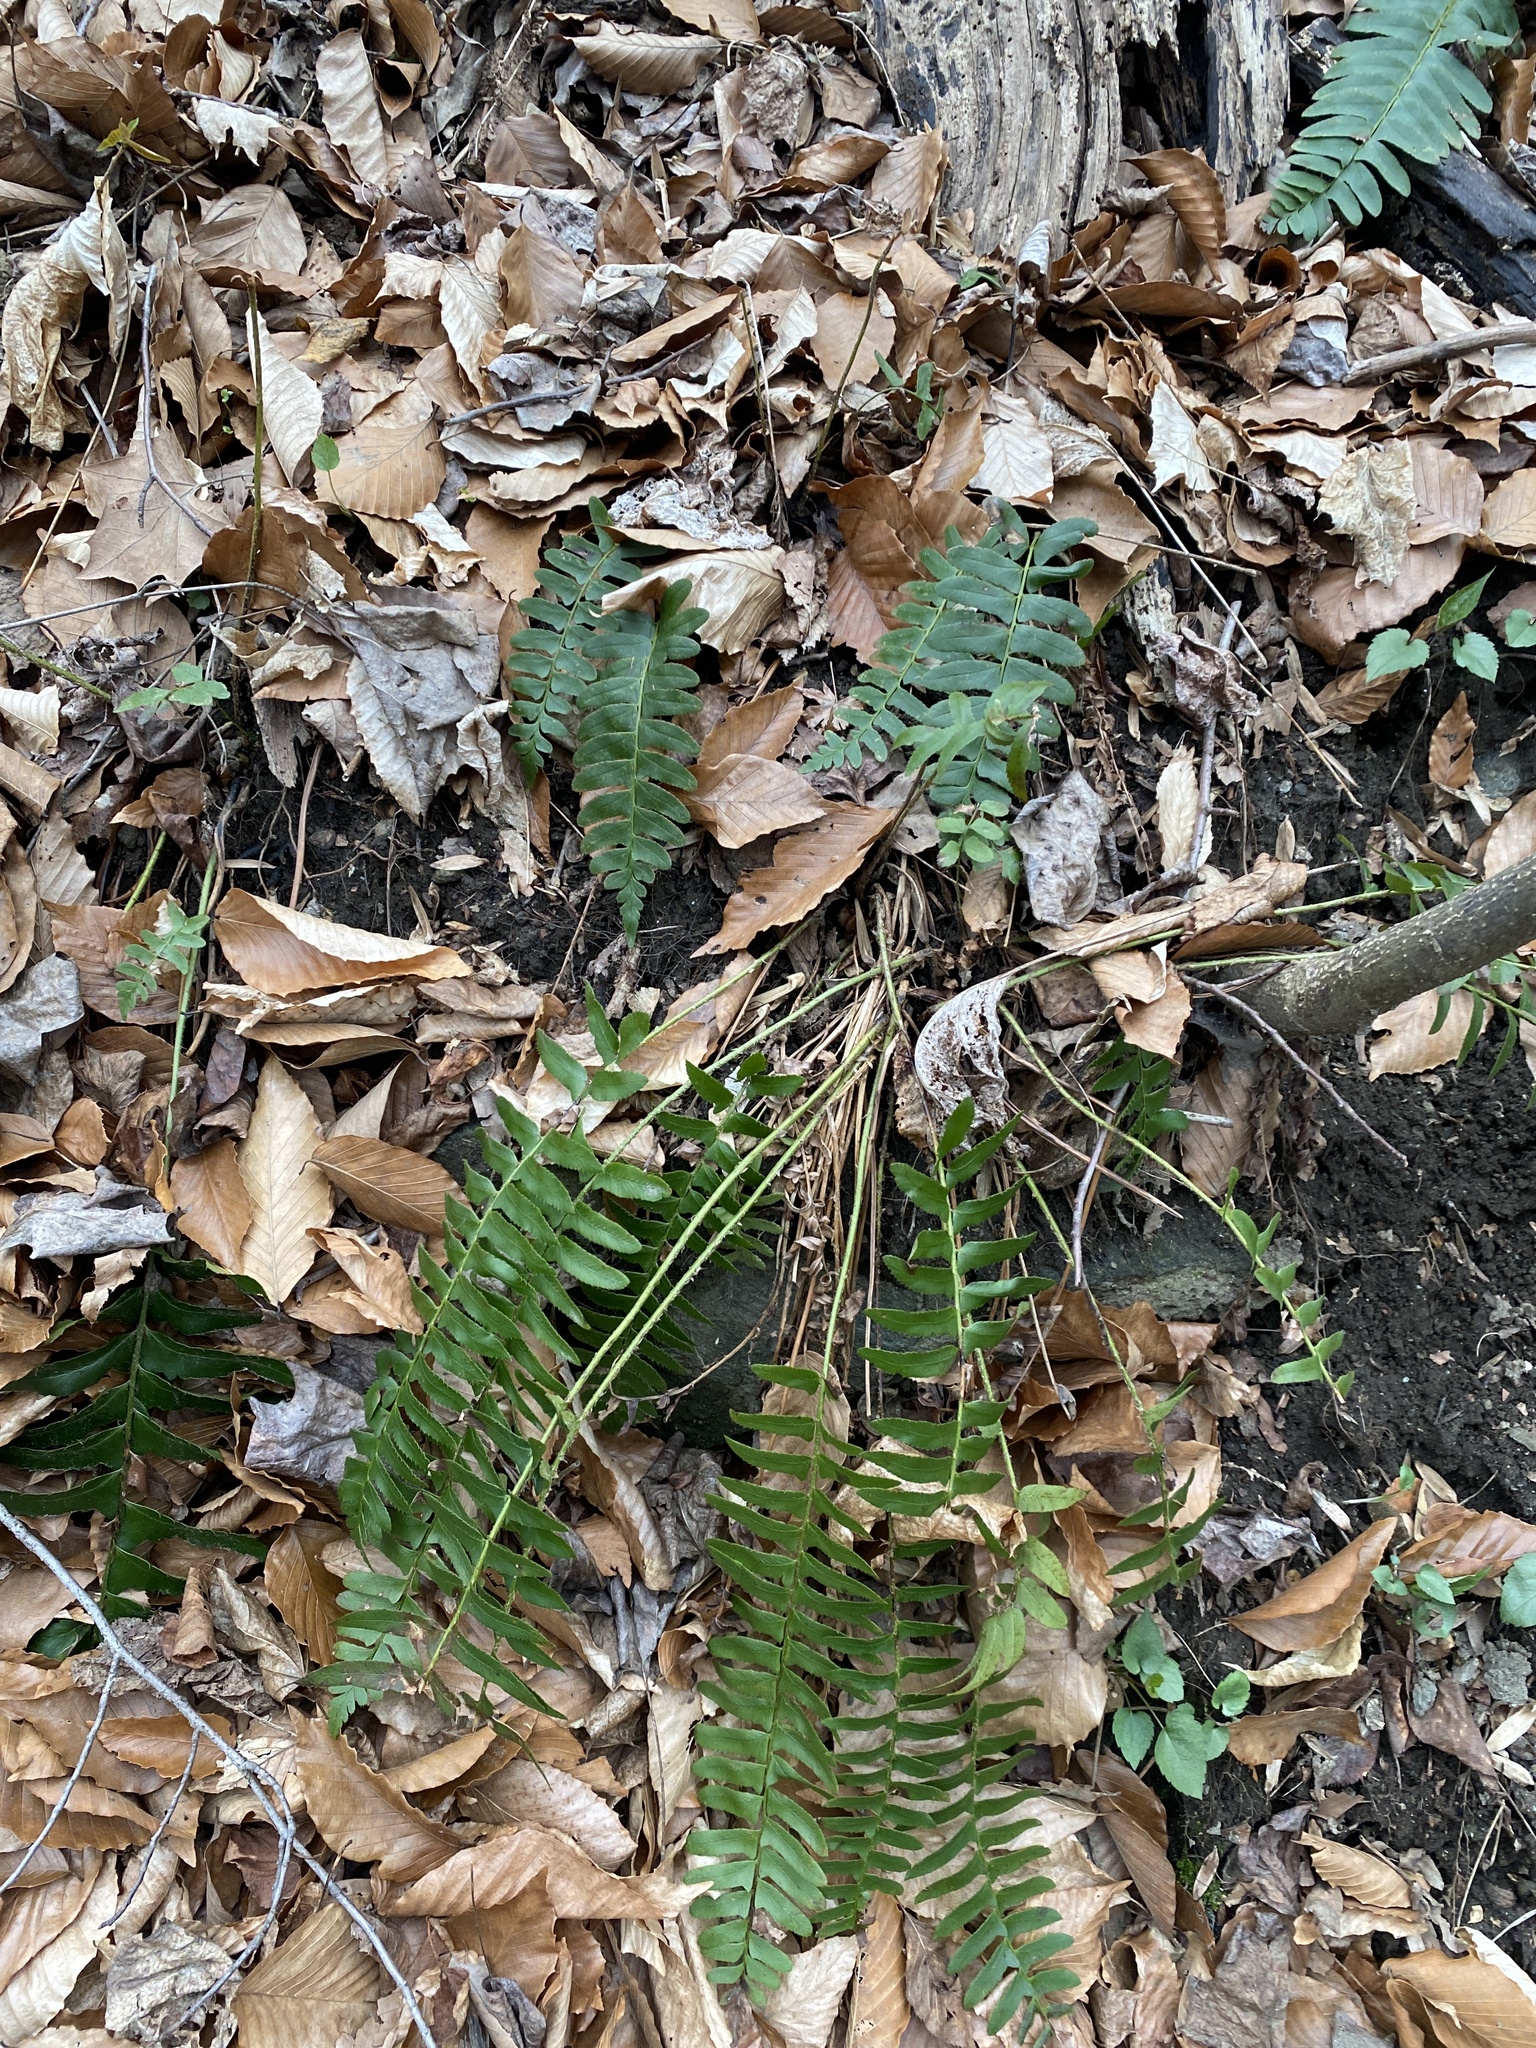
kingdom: Plantae
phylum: Tracheophyta
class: Polypodiopsida
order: Polypodiales
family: Dryopteridaceae
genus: Polystichum
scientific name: Polystichum acrostichoides
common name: Christmas fern
